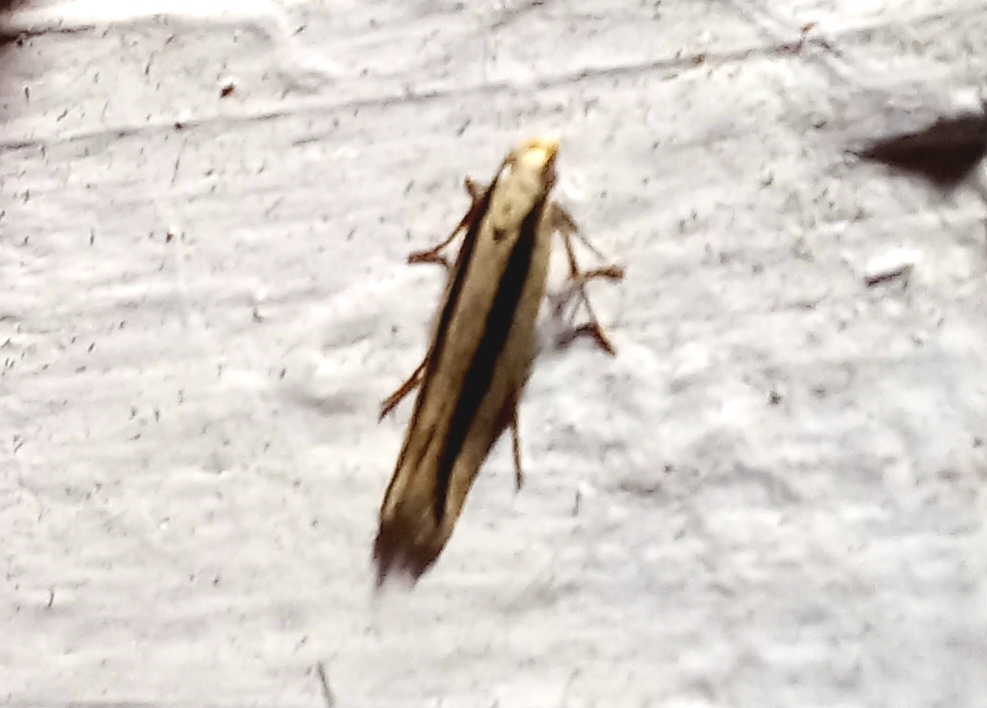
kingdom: Animalia
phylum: Arthropoda
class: Insecta
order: Lepidoptera
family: Gelechiidae
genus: Kiwaia
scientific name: Kiwaia monophragma
